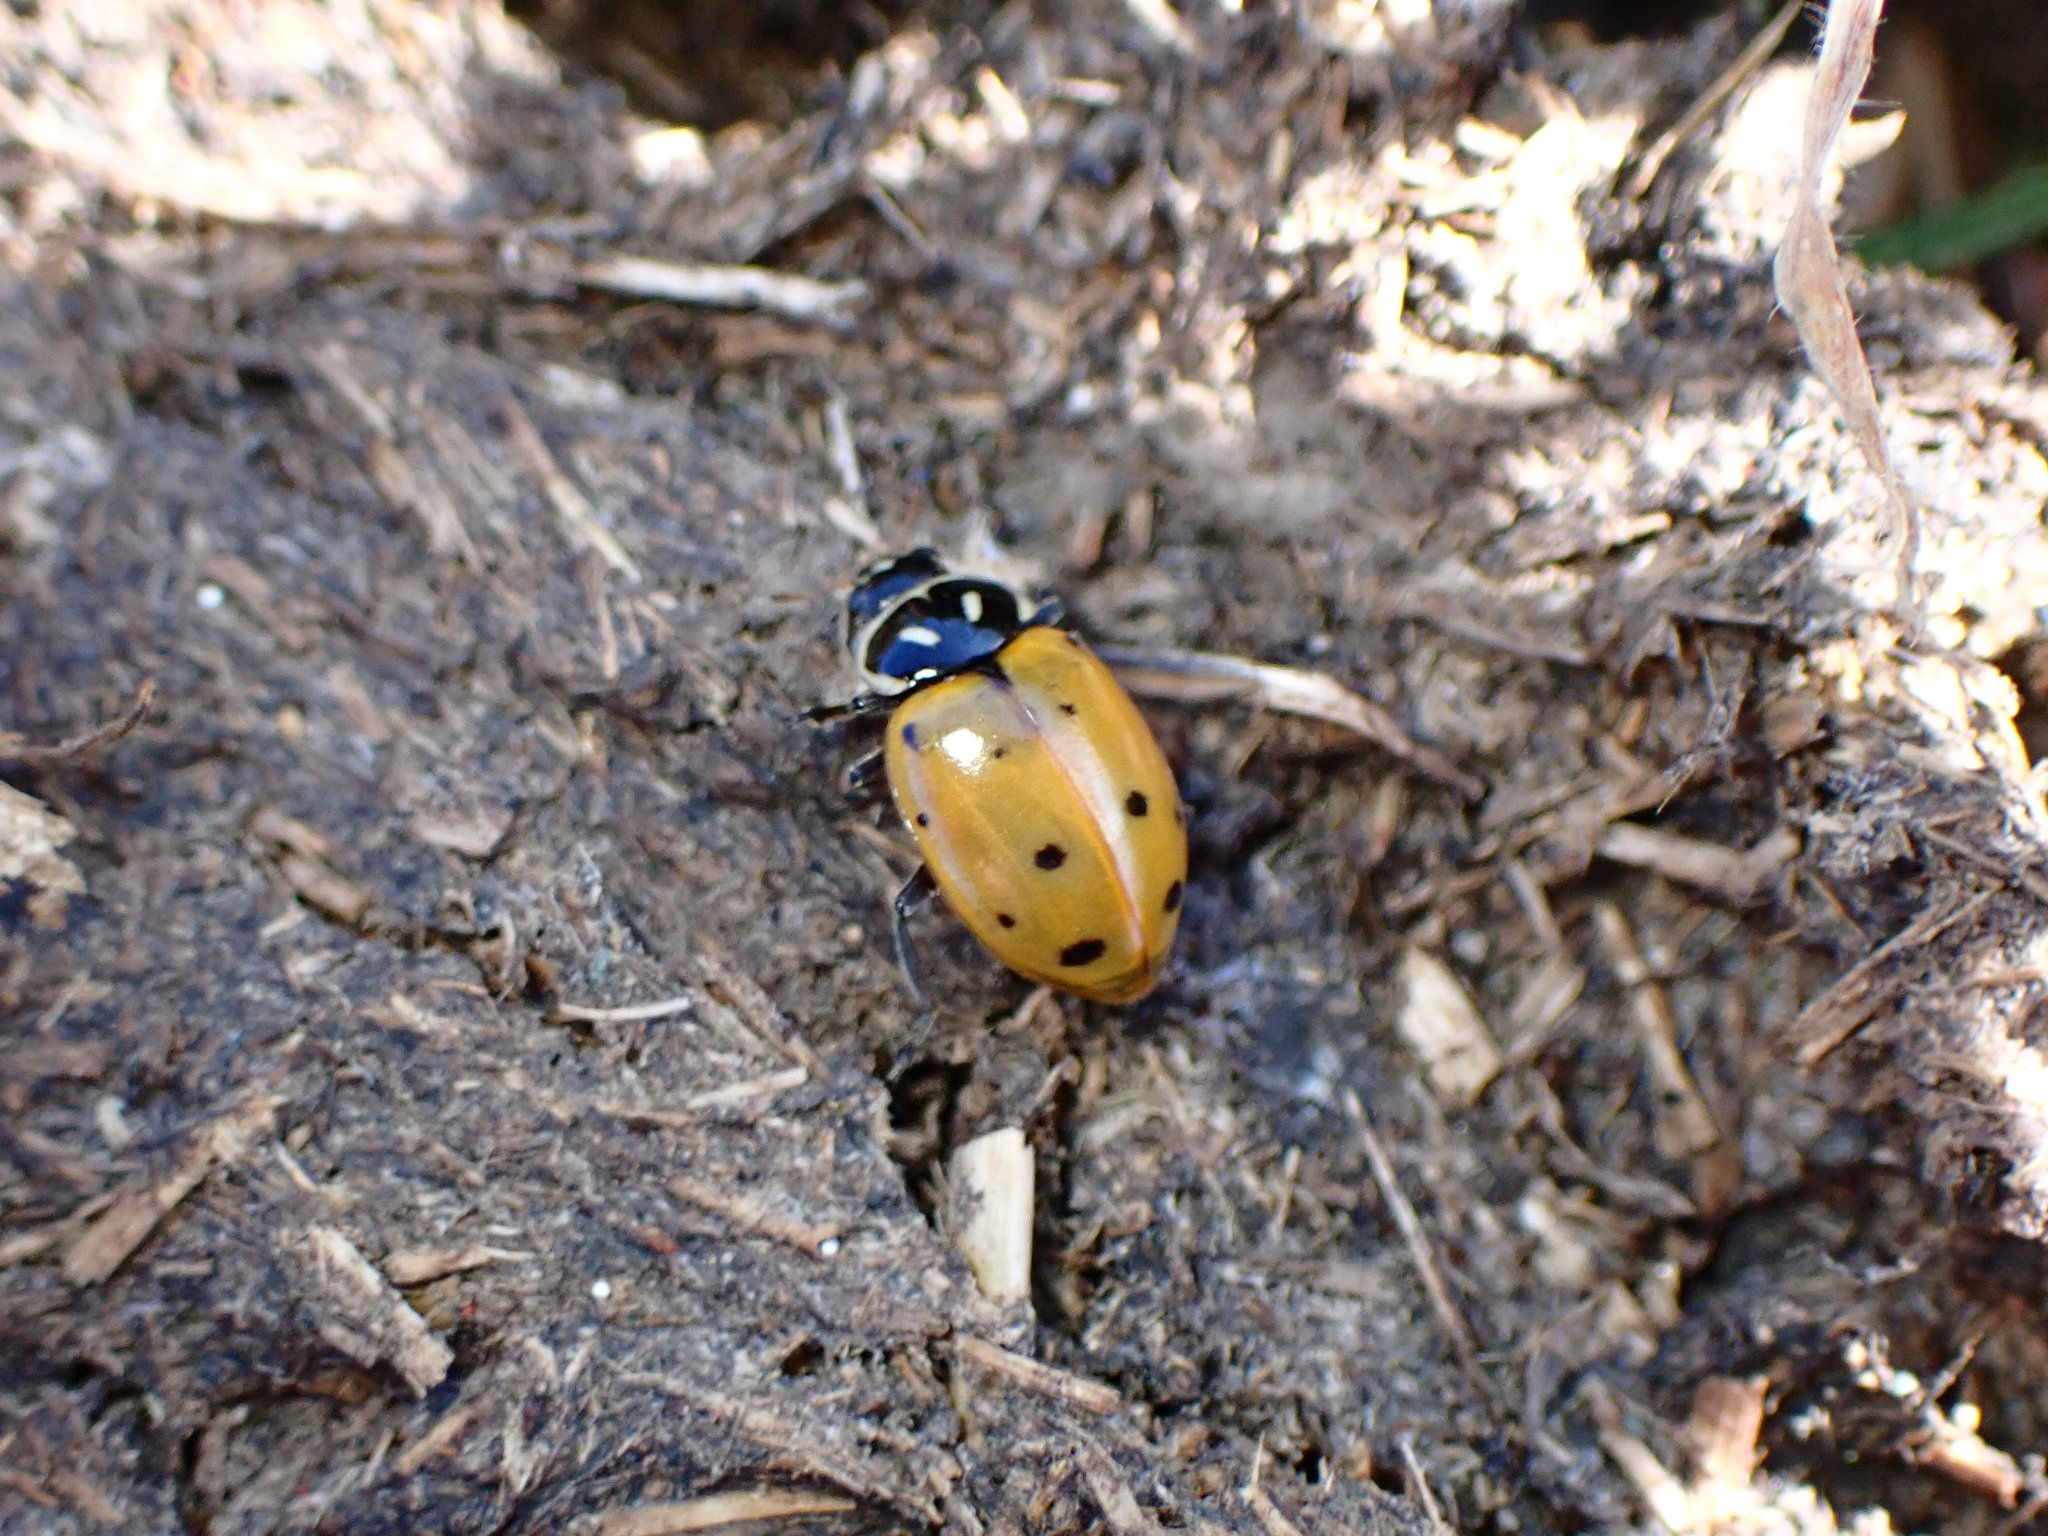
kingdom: Animalia
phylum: Arthropoda
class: Insecta
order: Coleoptera
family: Coccinellidae
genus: Hippodamia
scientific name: Hippodamia convergens
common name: Convergent lady beetle
